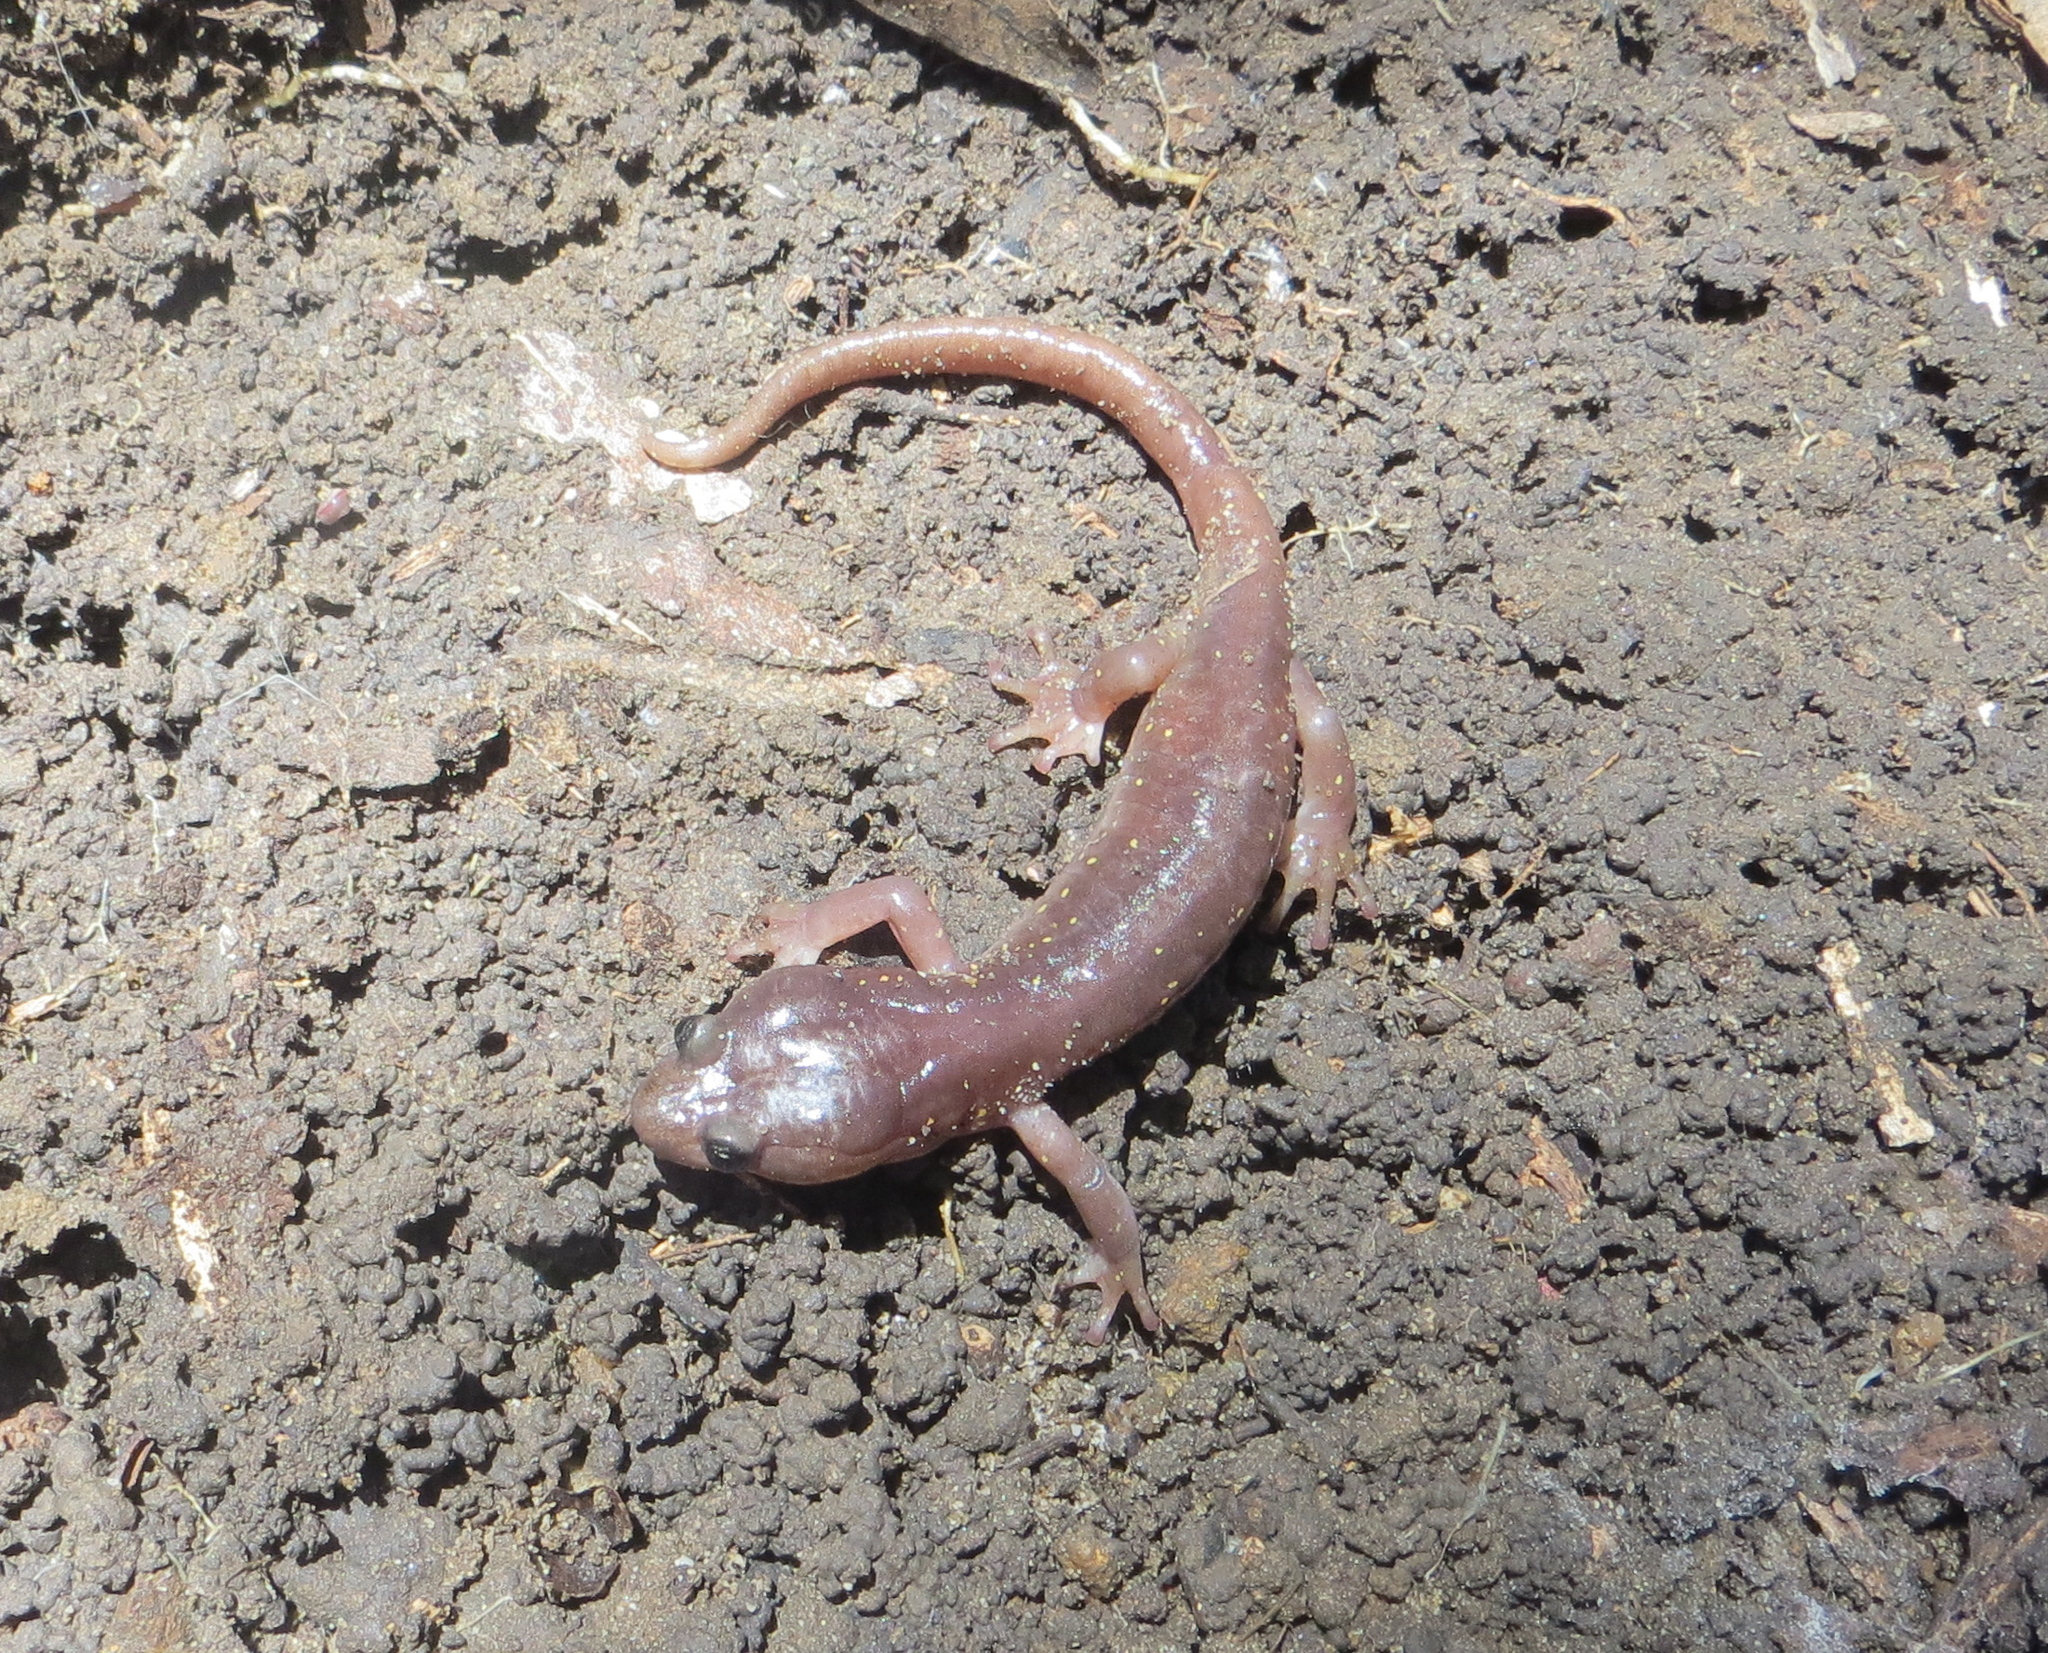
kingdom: Animalia
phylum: Chordata
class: Amphibia
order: Caudata
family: Plethodontidae
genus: Aneides
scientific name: Aneides lugubris
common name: Arboreal salamander
